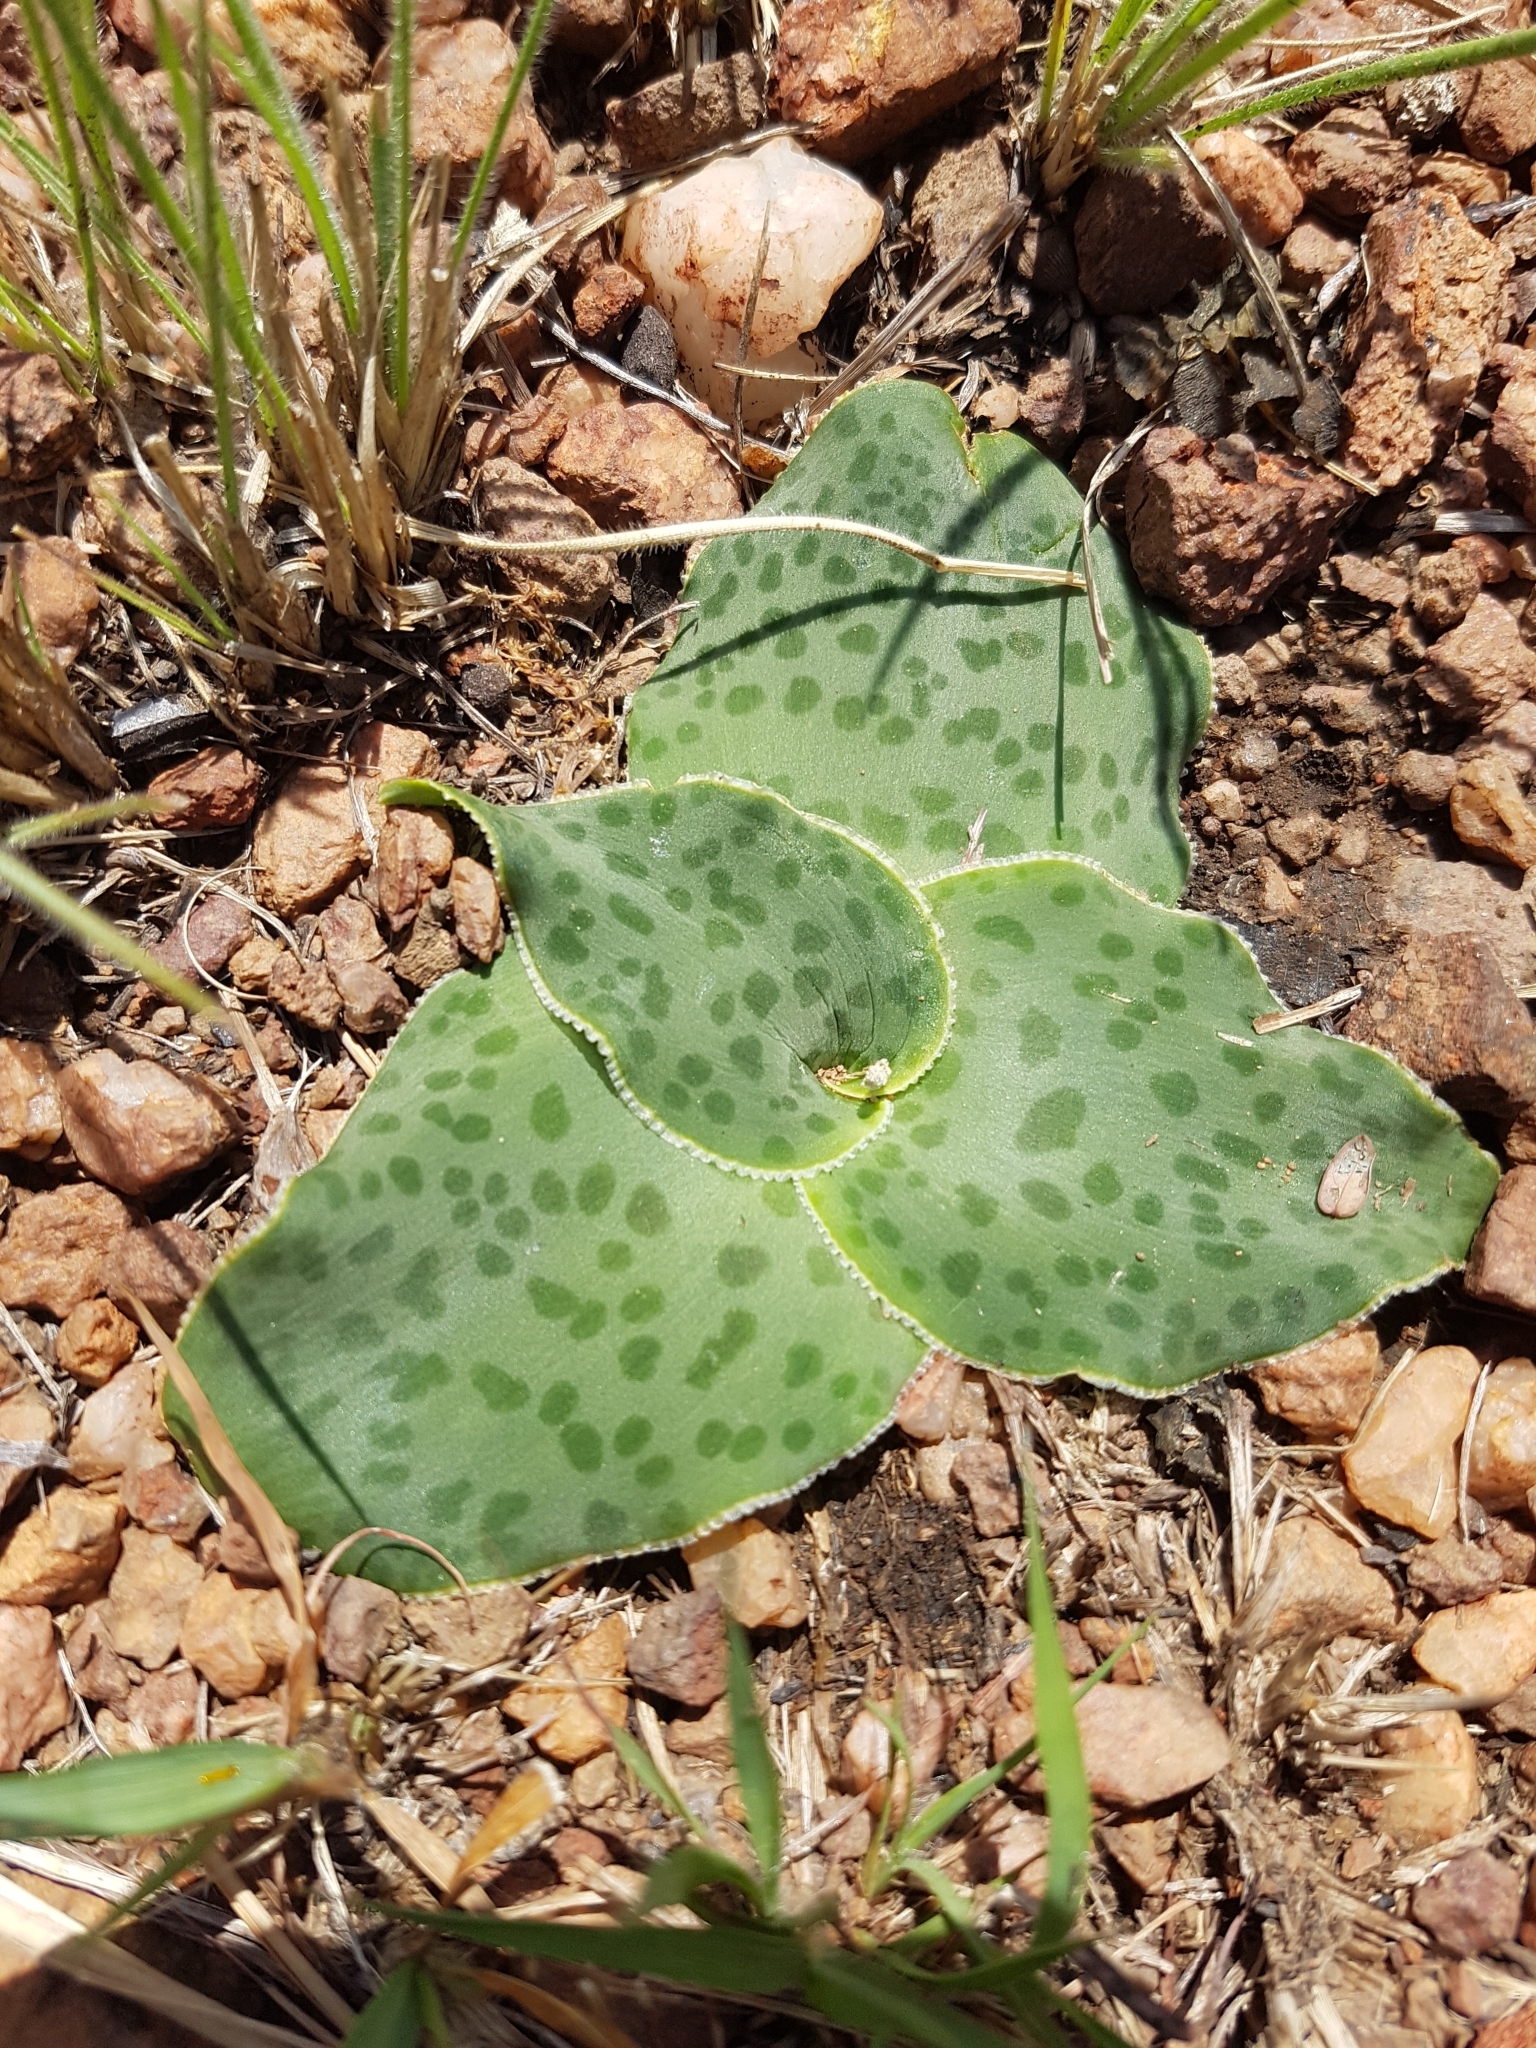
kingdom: Plantae
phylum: Tracheophyta
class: Liliopsida
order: Asparagales
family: Asparagaceae
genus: Ledebouria
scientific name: Ledebouria ovatifolia
